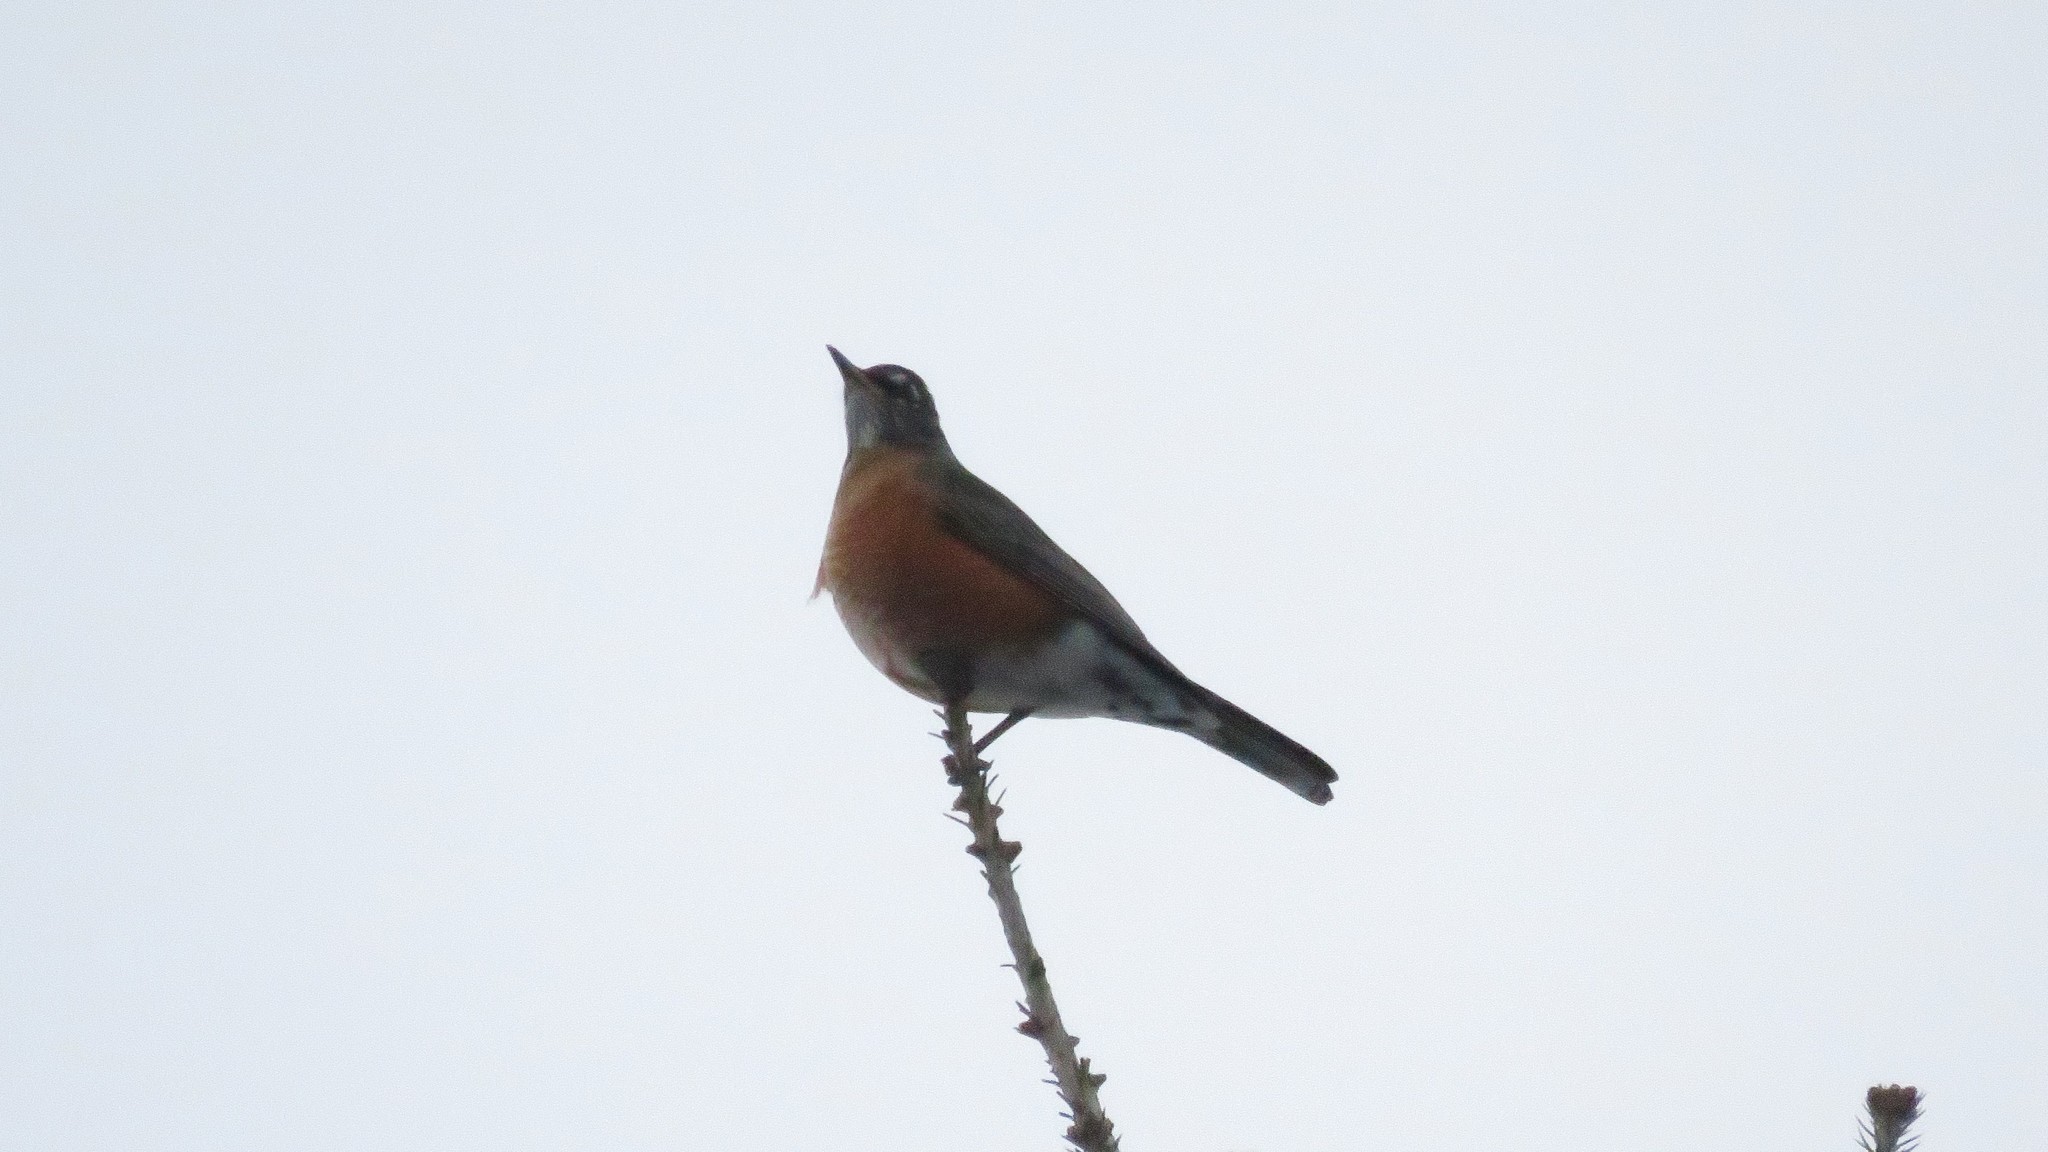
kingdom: Animalia
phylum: Chordata
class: Aves
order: Passeriformes
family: Turdidae
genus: Turdus
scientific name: Turdus migratorius
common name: American robin
